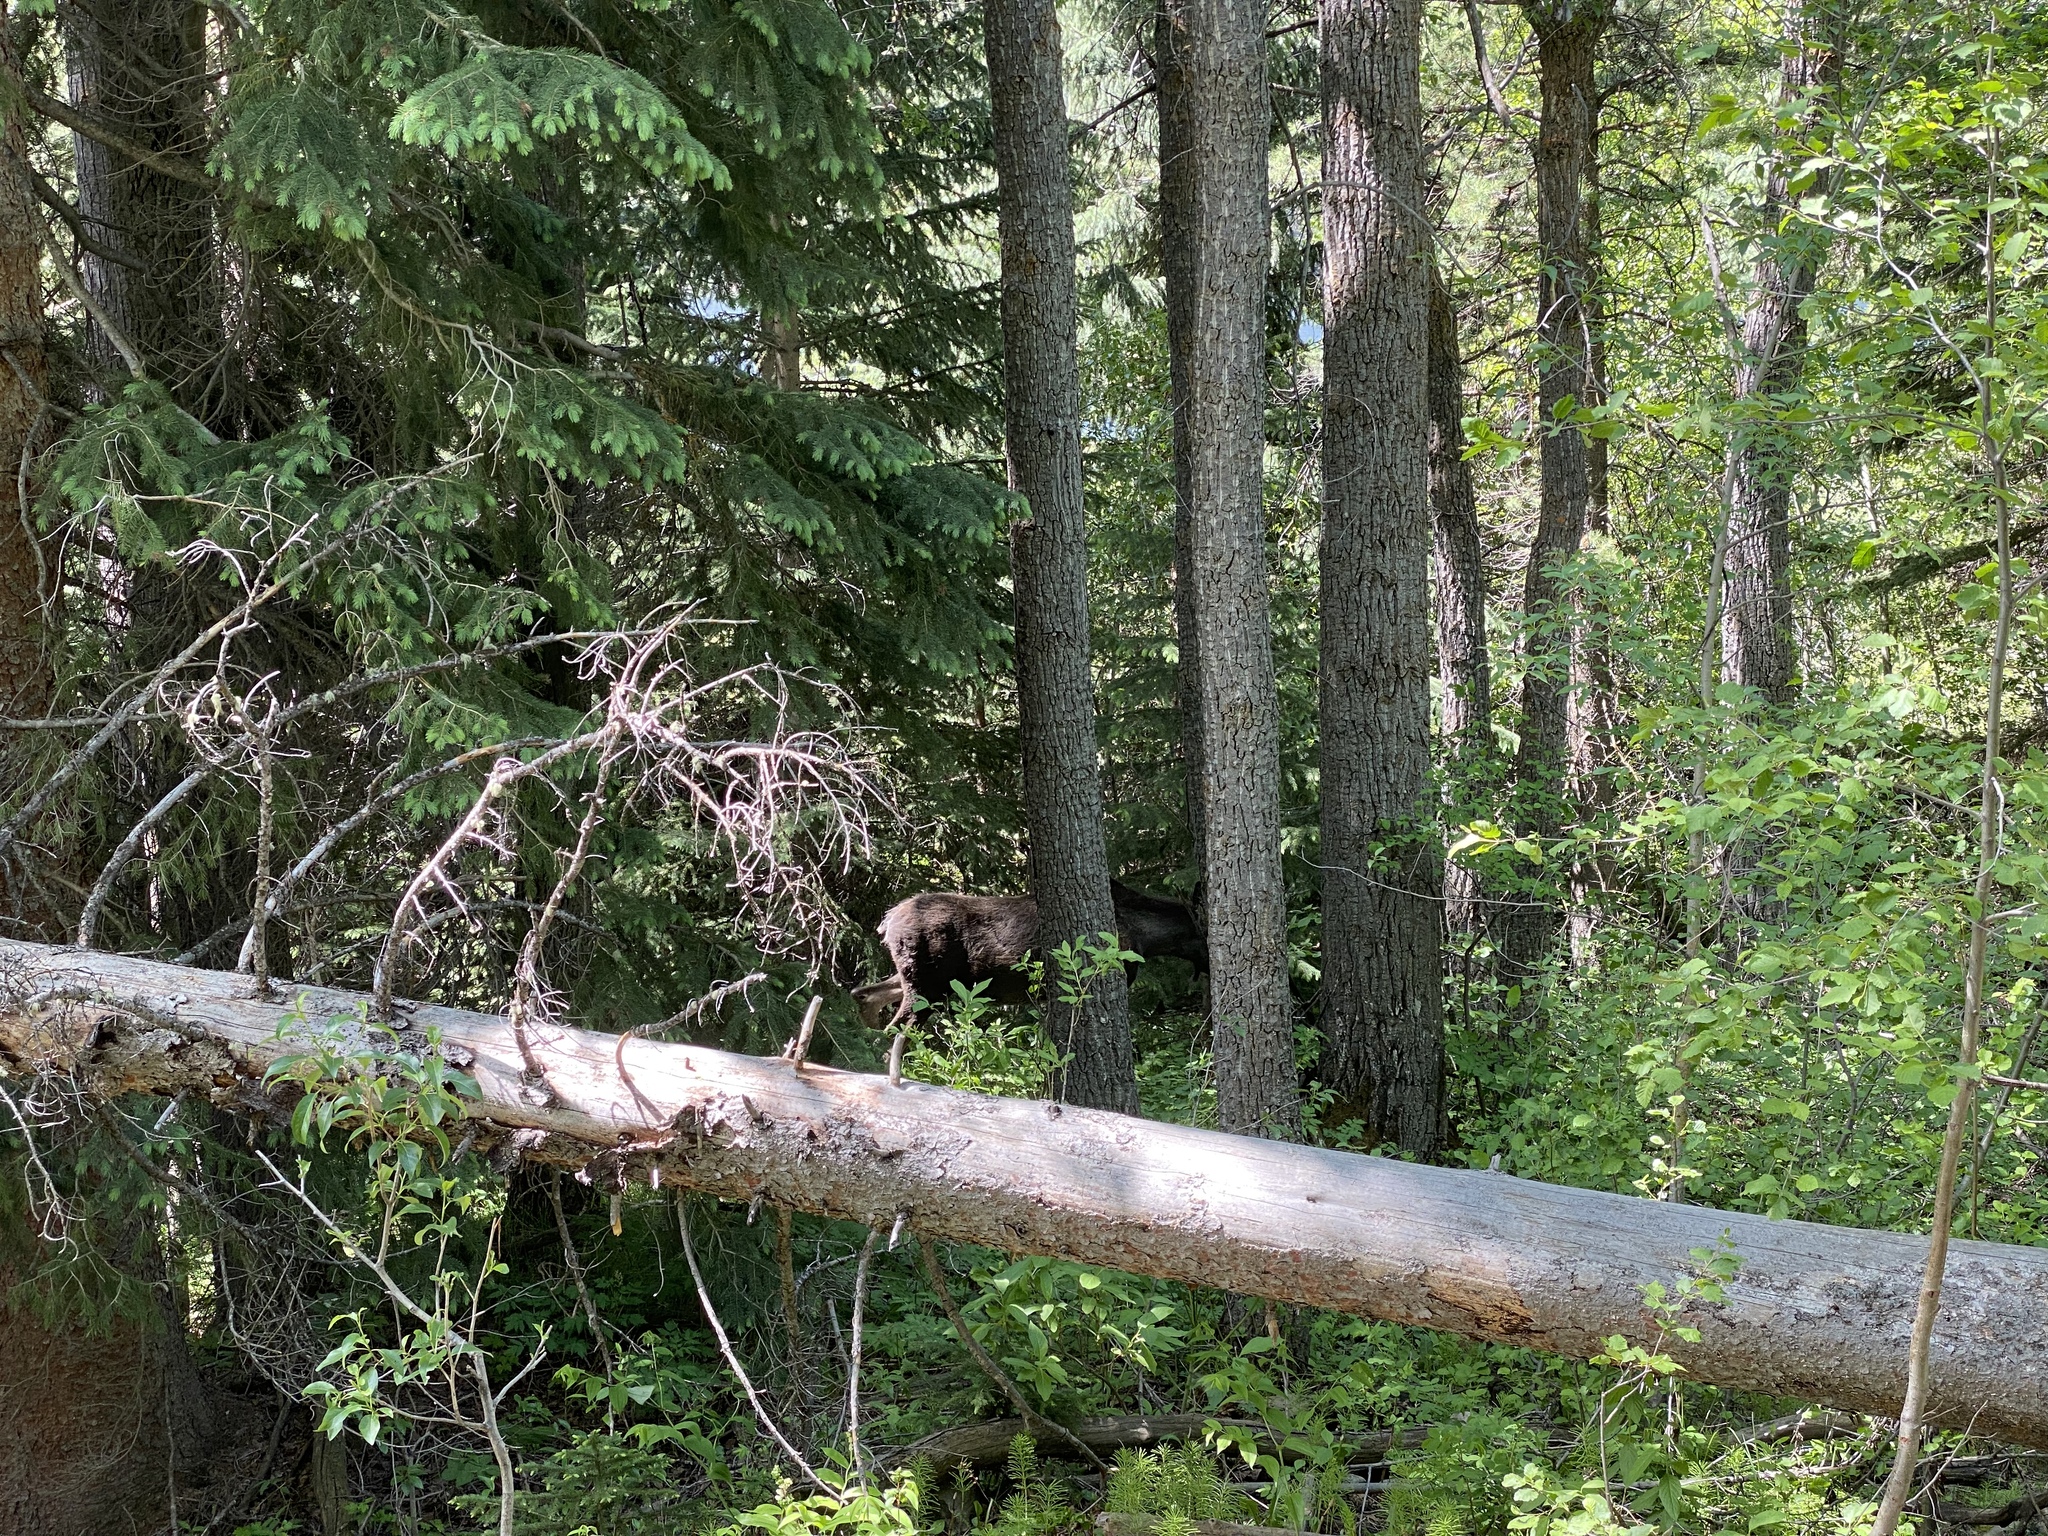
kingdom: Animalia
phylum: Chordata
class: Mammalia
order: Artiodactyla
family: Cervidae
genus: Alces
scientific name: Alces alces
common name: Moose
